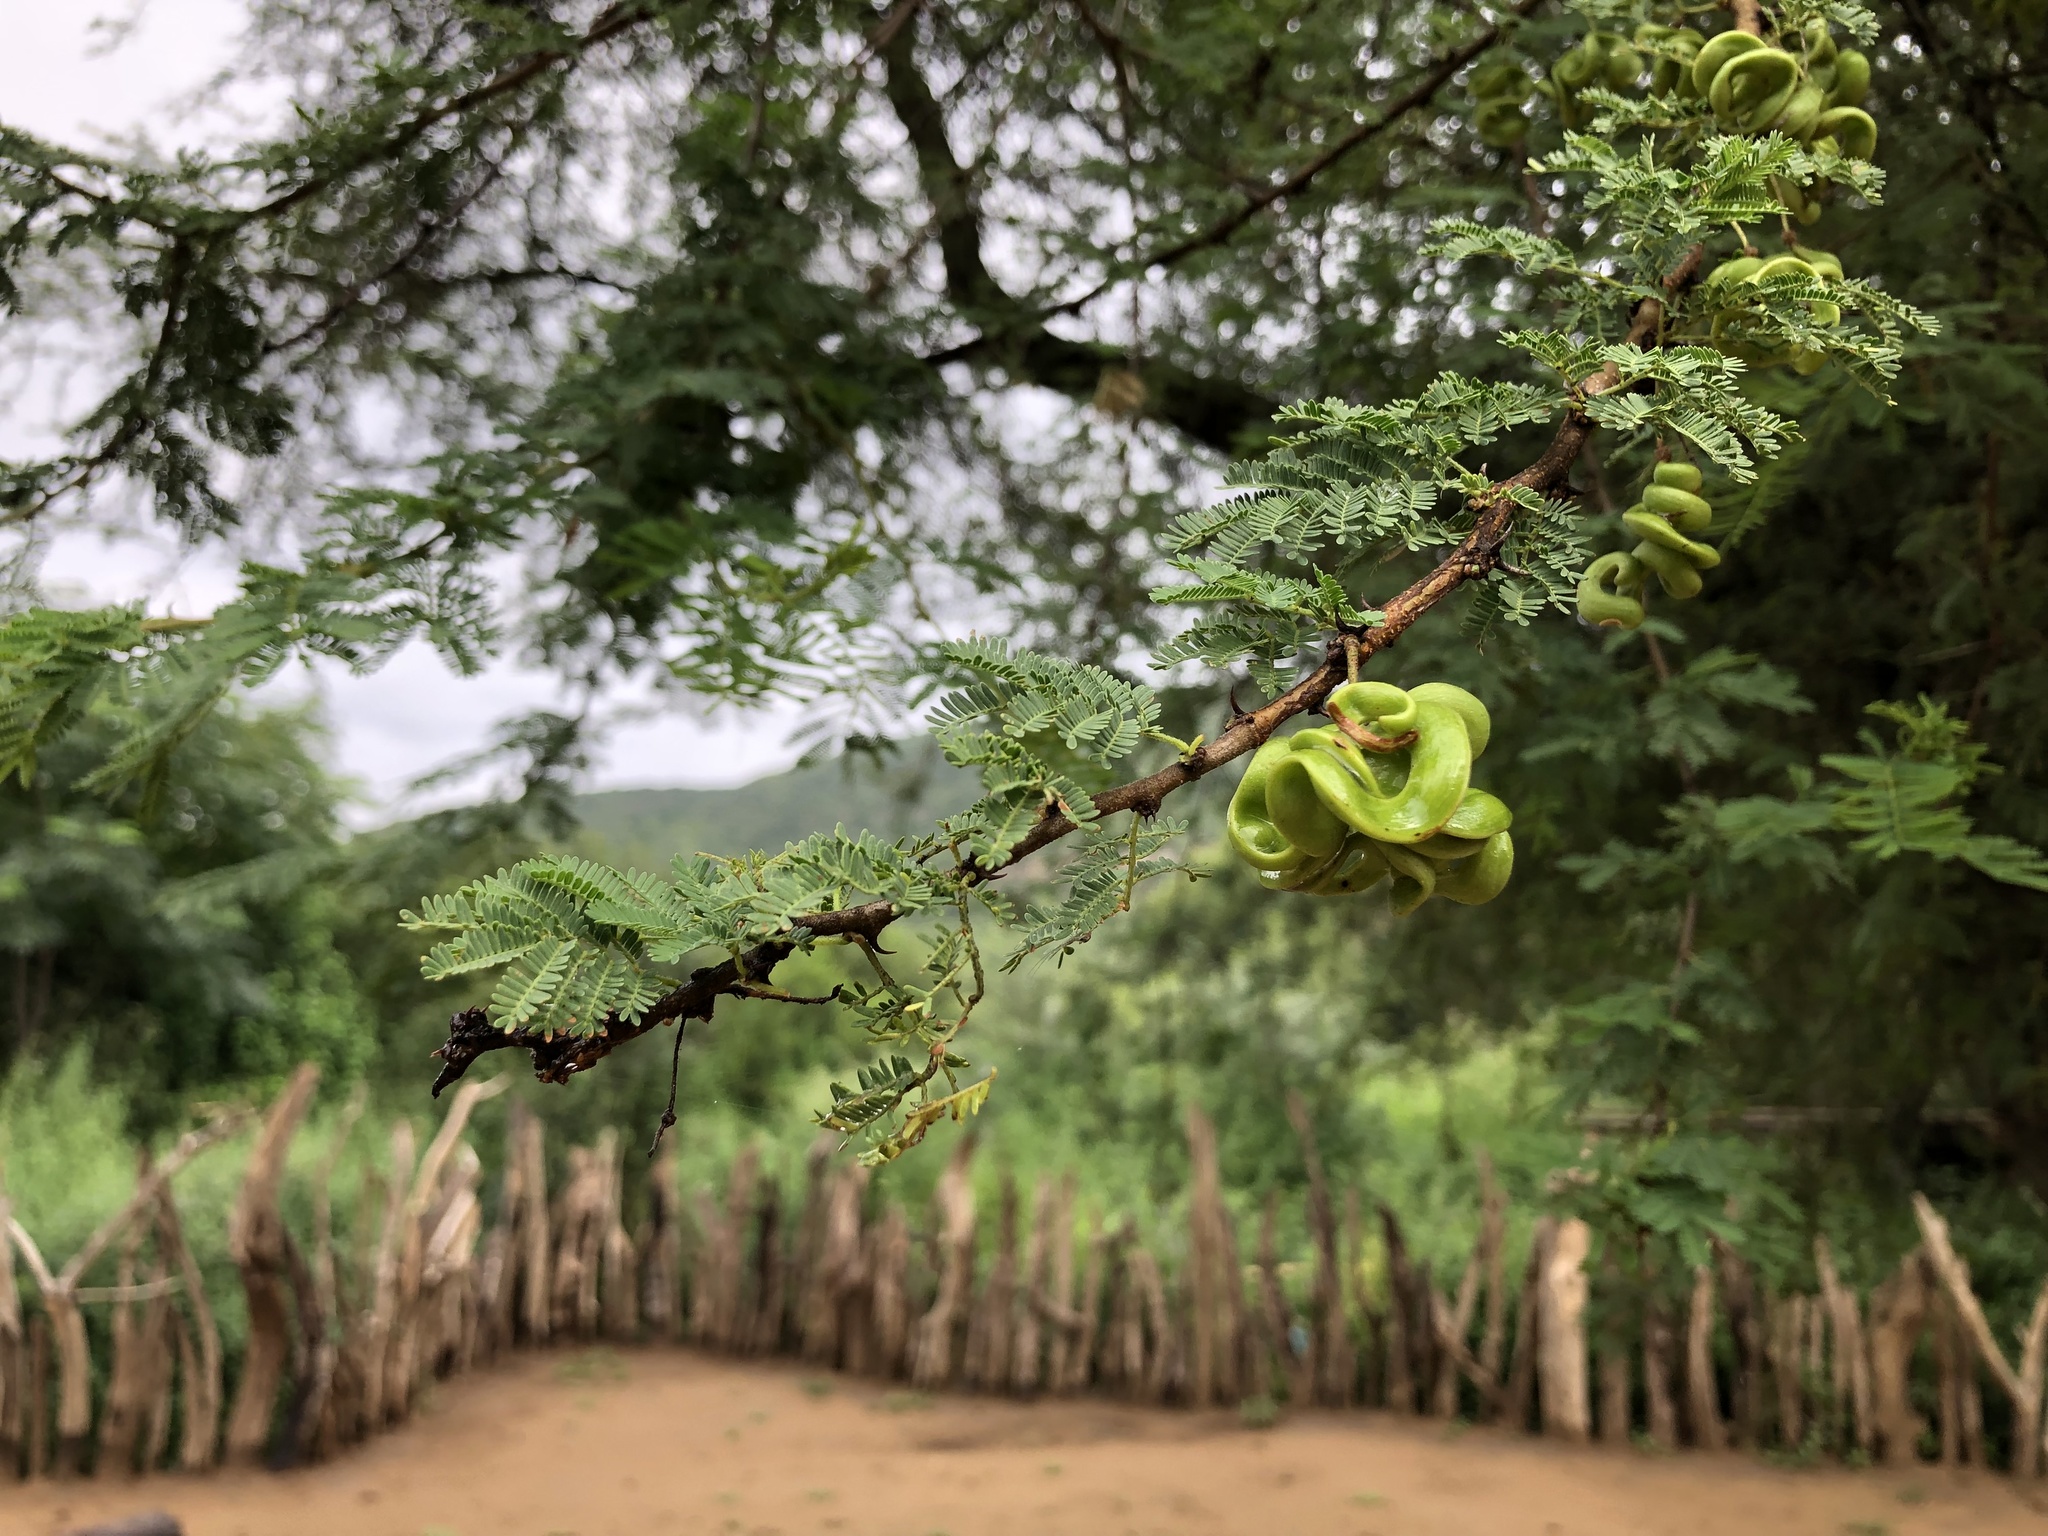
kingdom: Plantae
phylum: Tracheophyta
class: Magnoliopsida
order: Fabales
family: Fabaceae
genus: Vachellia
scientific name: Vachellia tortilis
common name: Umbrella thorn acacia
